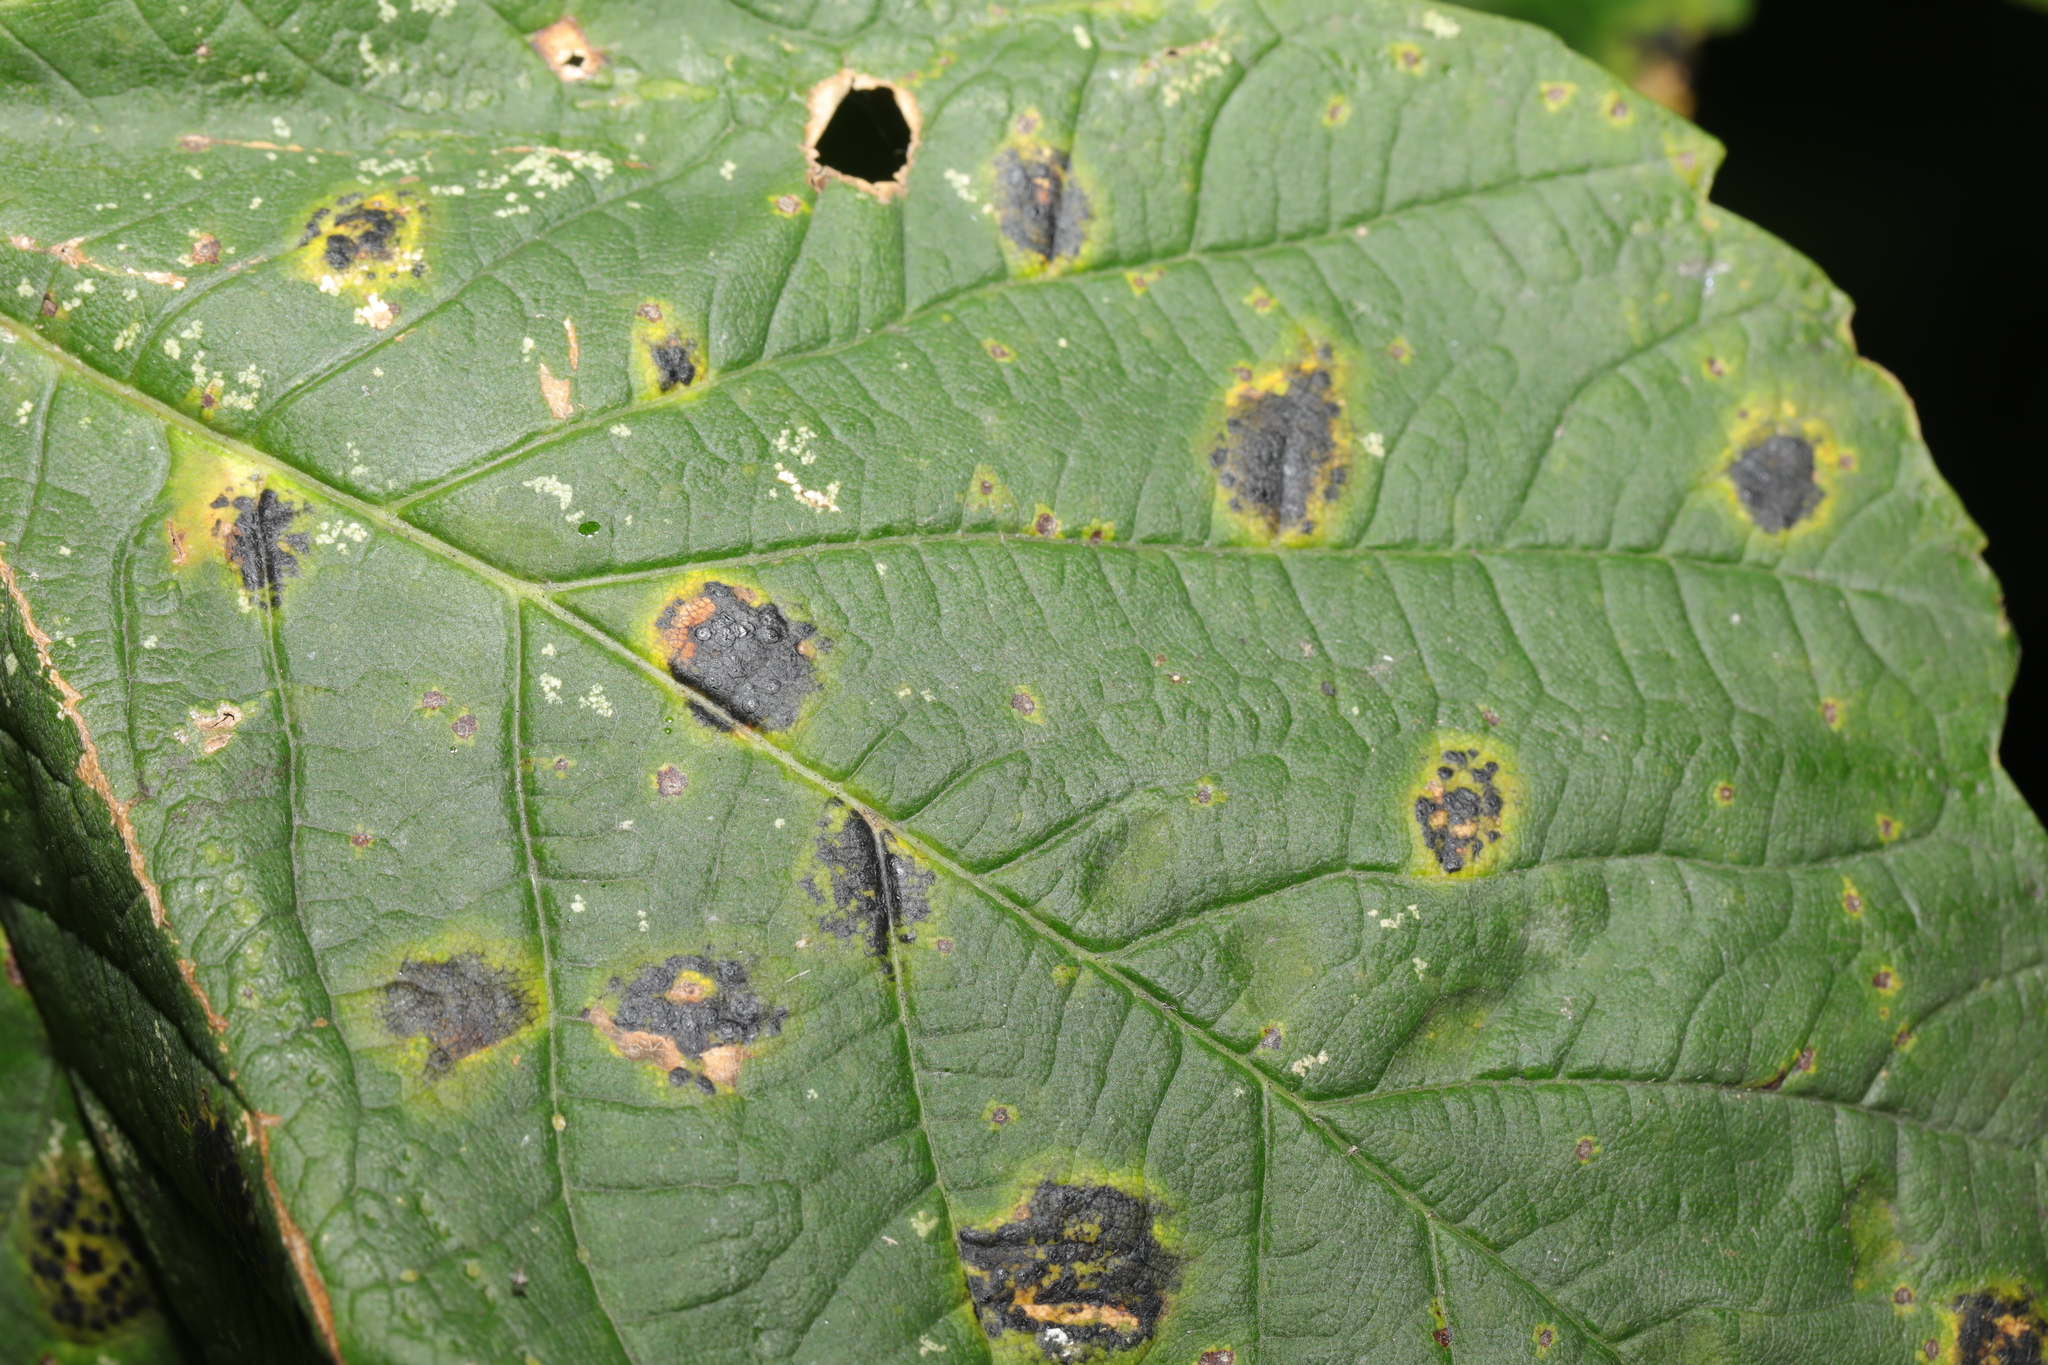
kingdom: Fungi
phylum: Ascomycota
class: Leotiomycetes
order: Rhytismatales
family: Rhytismataceae
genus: Rhytisma
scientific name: Rhytisma acerinum
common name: European tar spot
